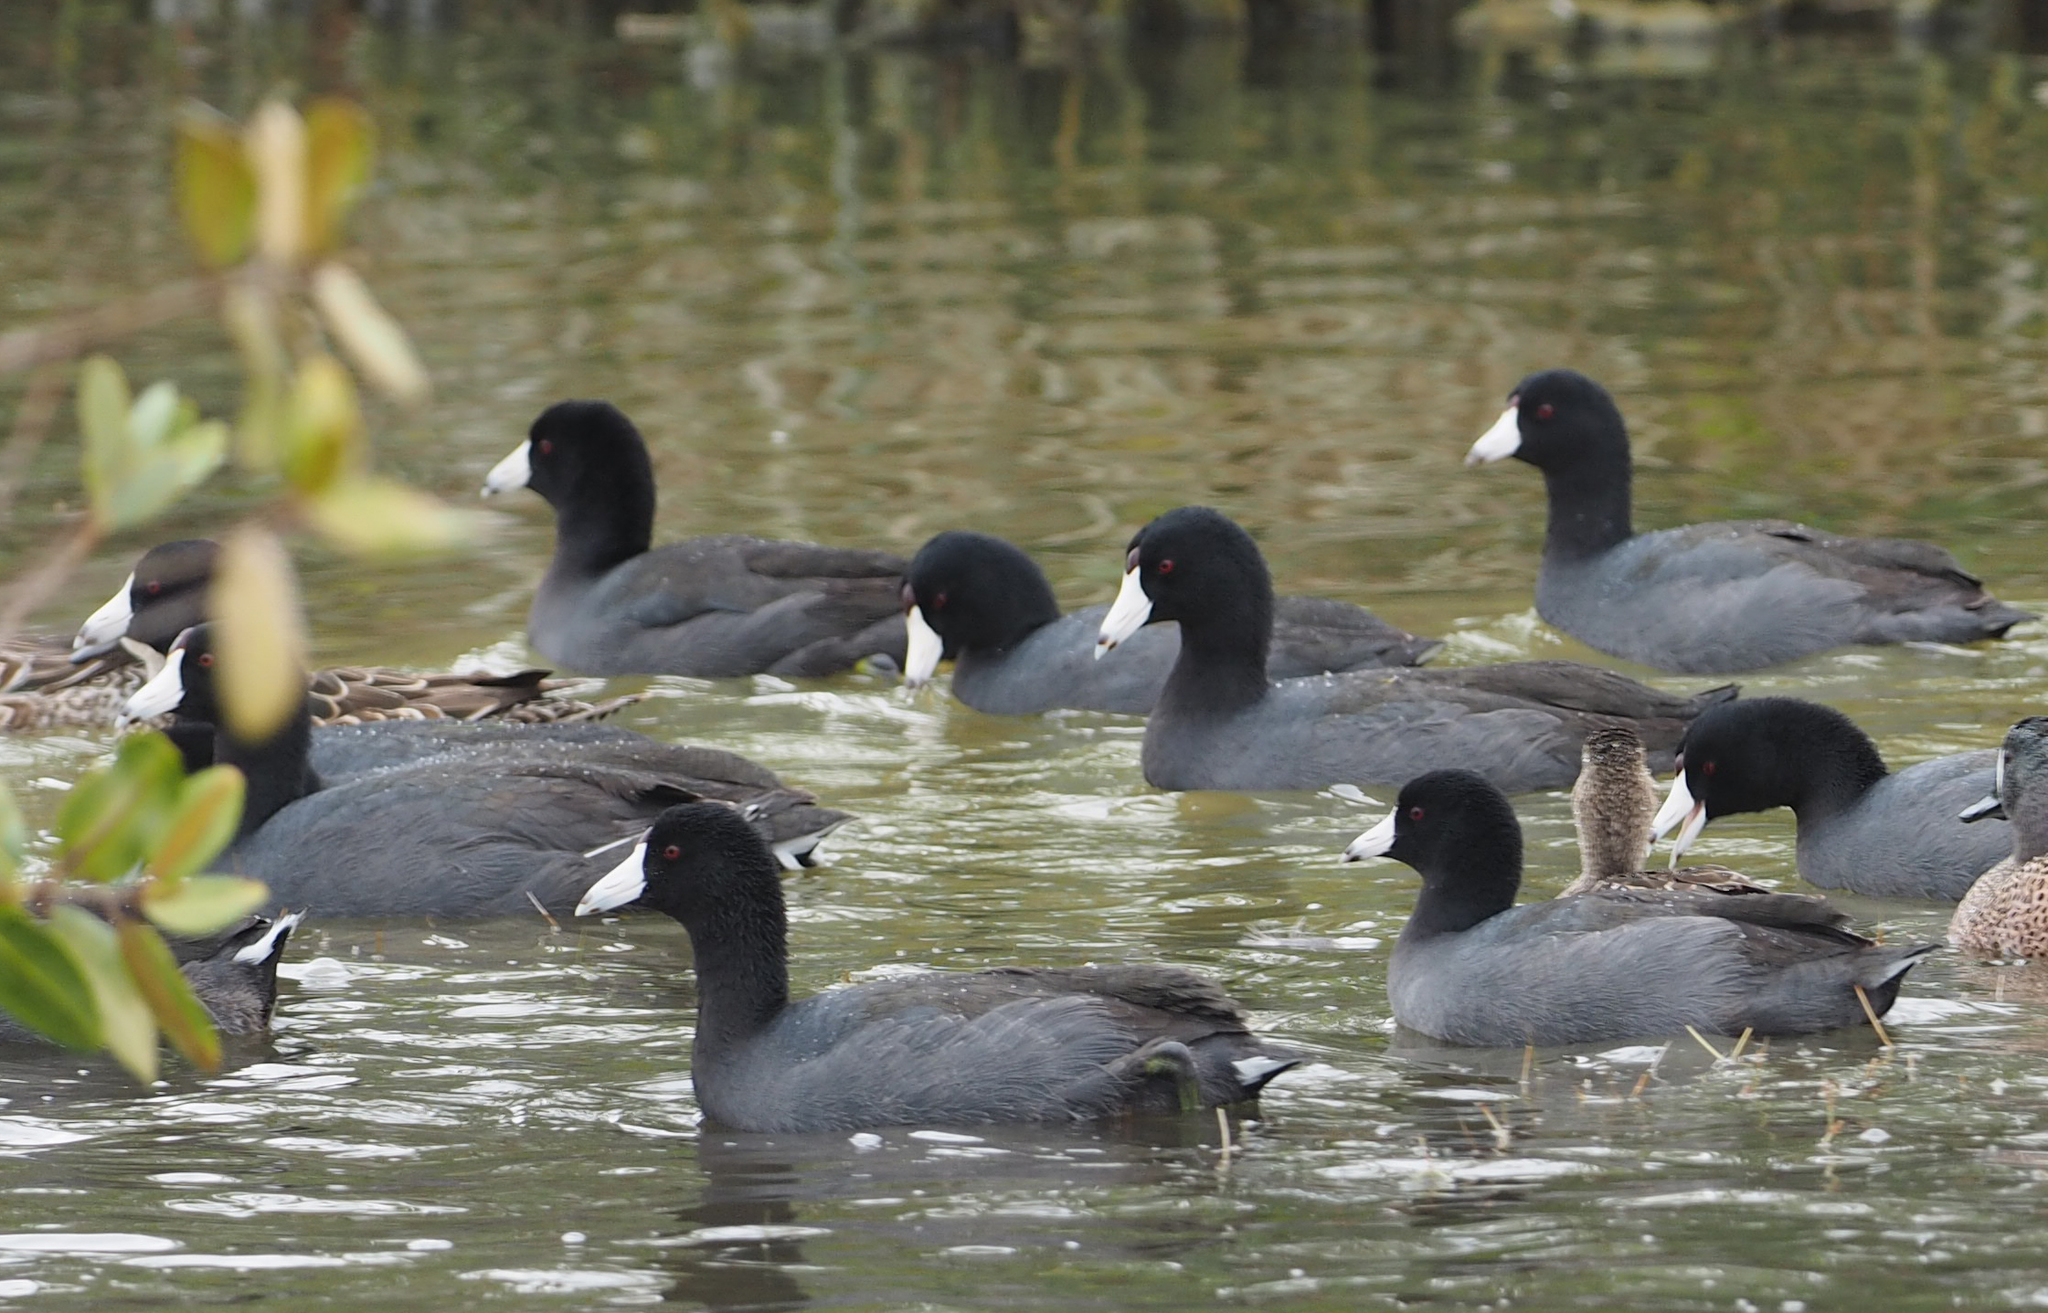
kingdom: Animalia
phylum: Chordata
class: Aves
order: Gruiformes
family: Rallidae
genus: Fulica
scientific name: Fulica americana
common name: American coot
